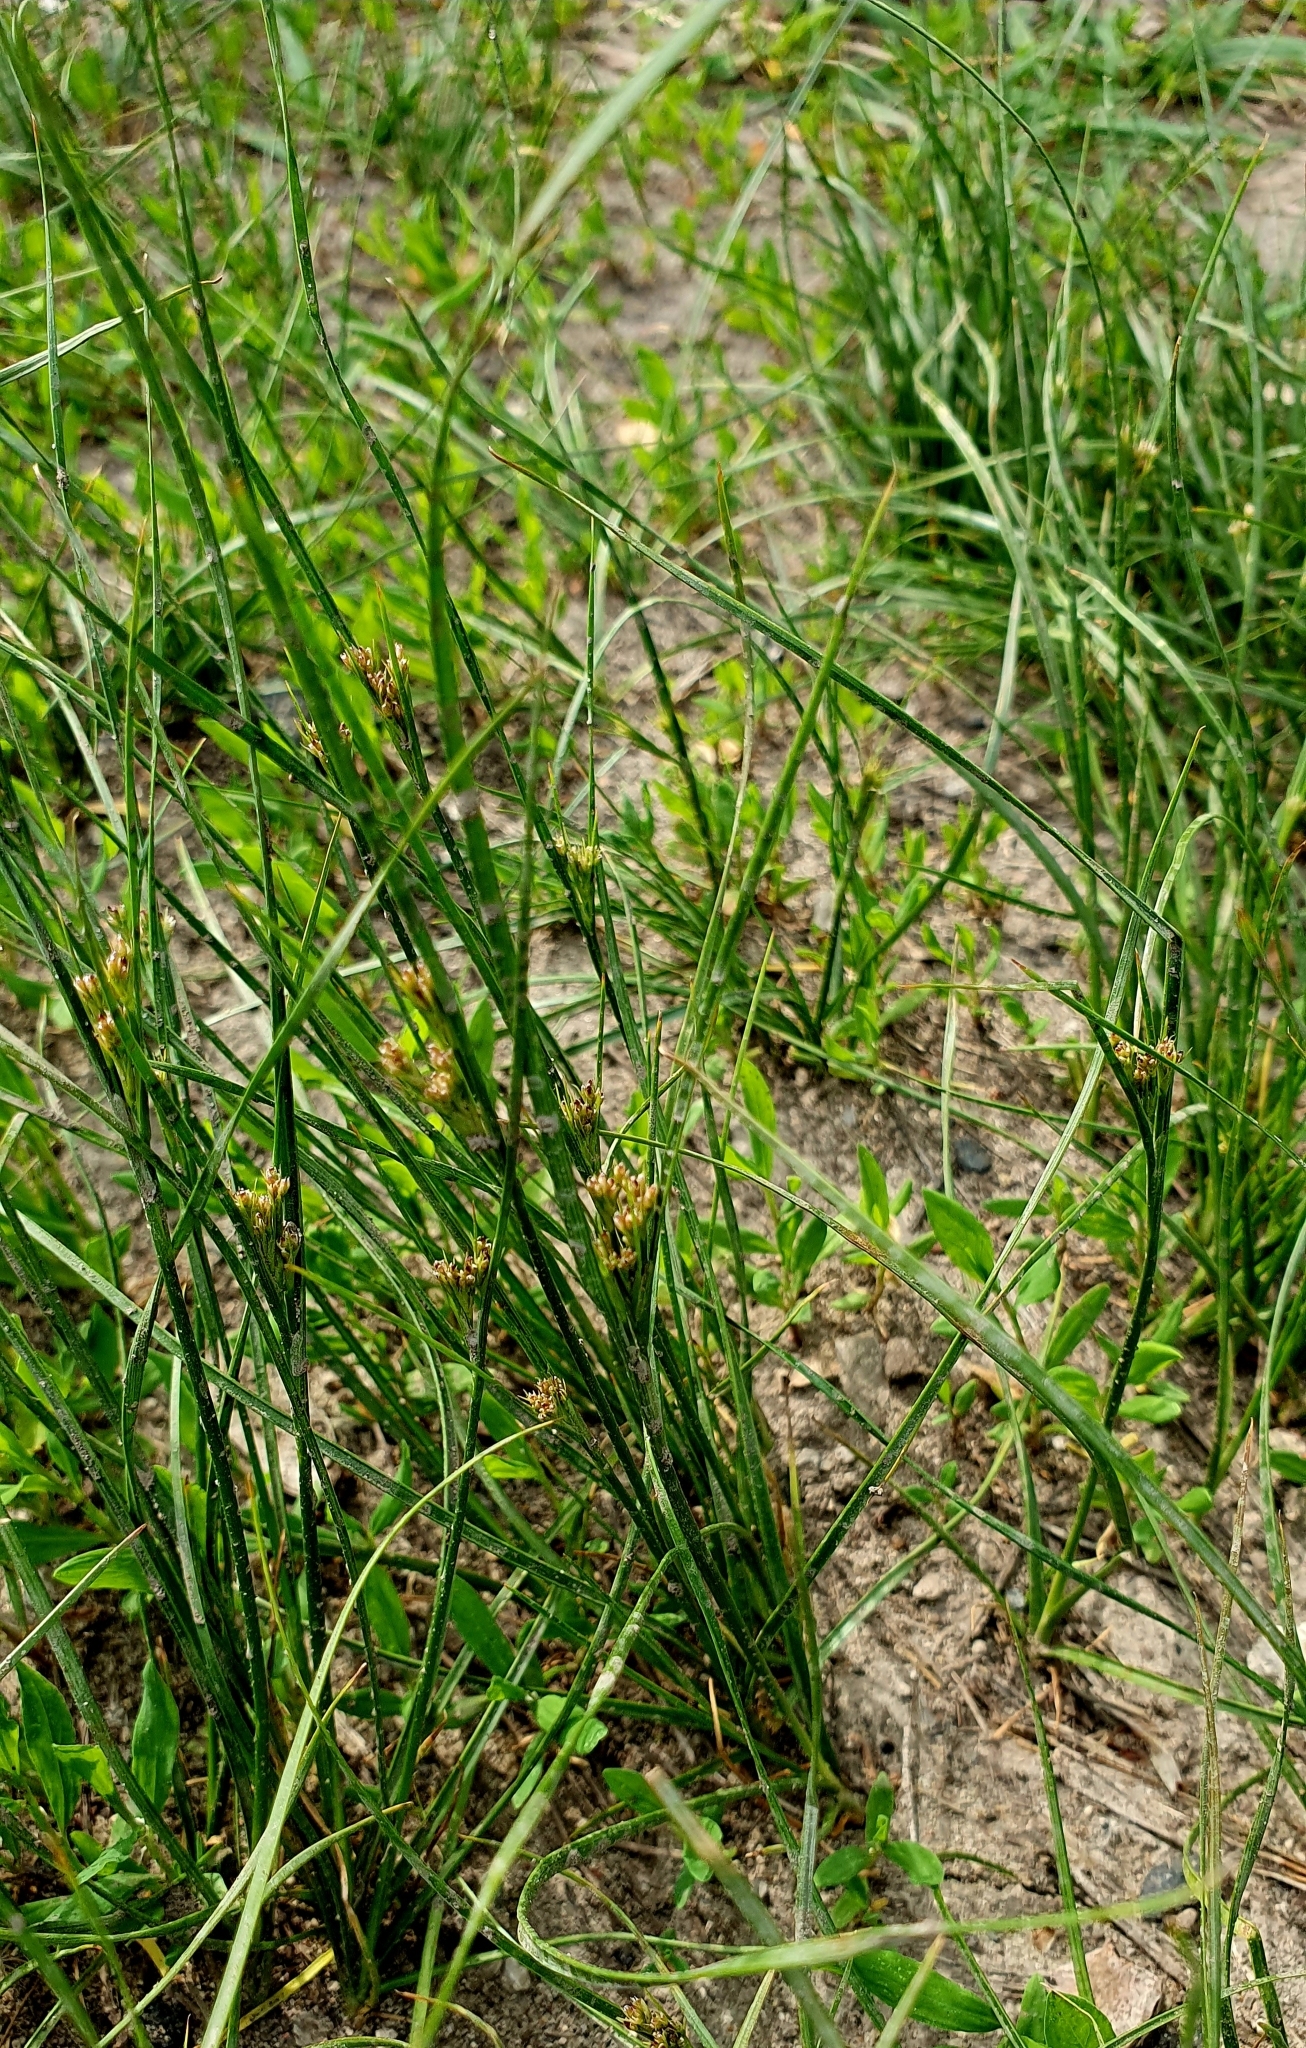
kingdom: Plantae
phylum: Tracheophyta
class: Liliopsida
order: Poales
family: Juncaceae
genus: Juncus
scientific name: Juncus compressus
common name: Round-fruited rush
